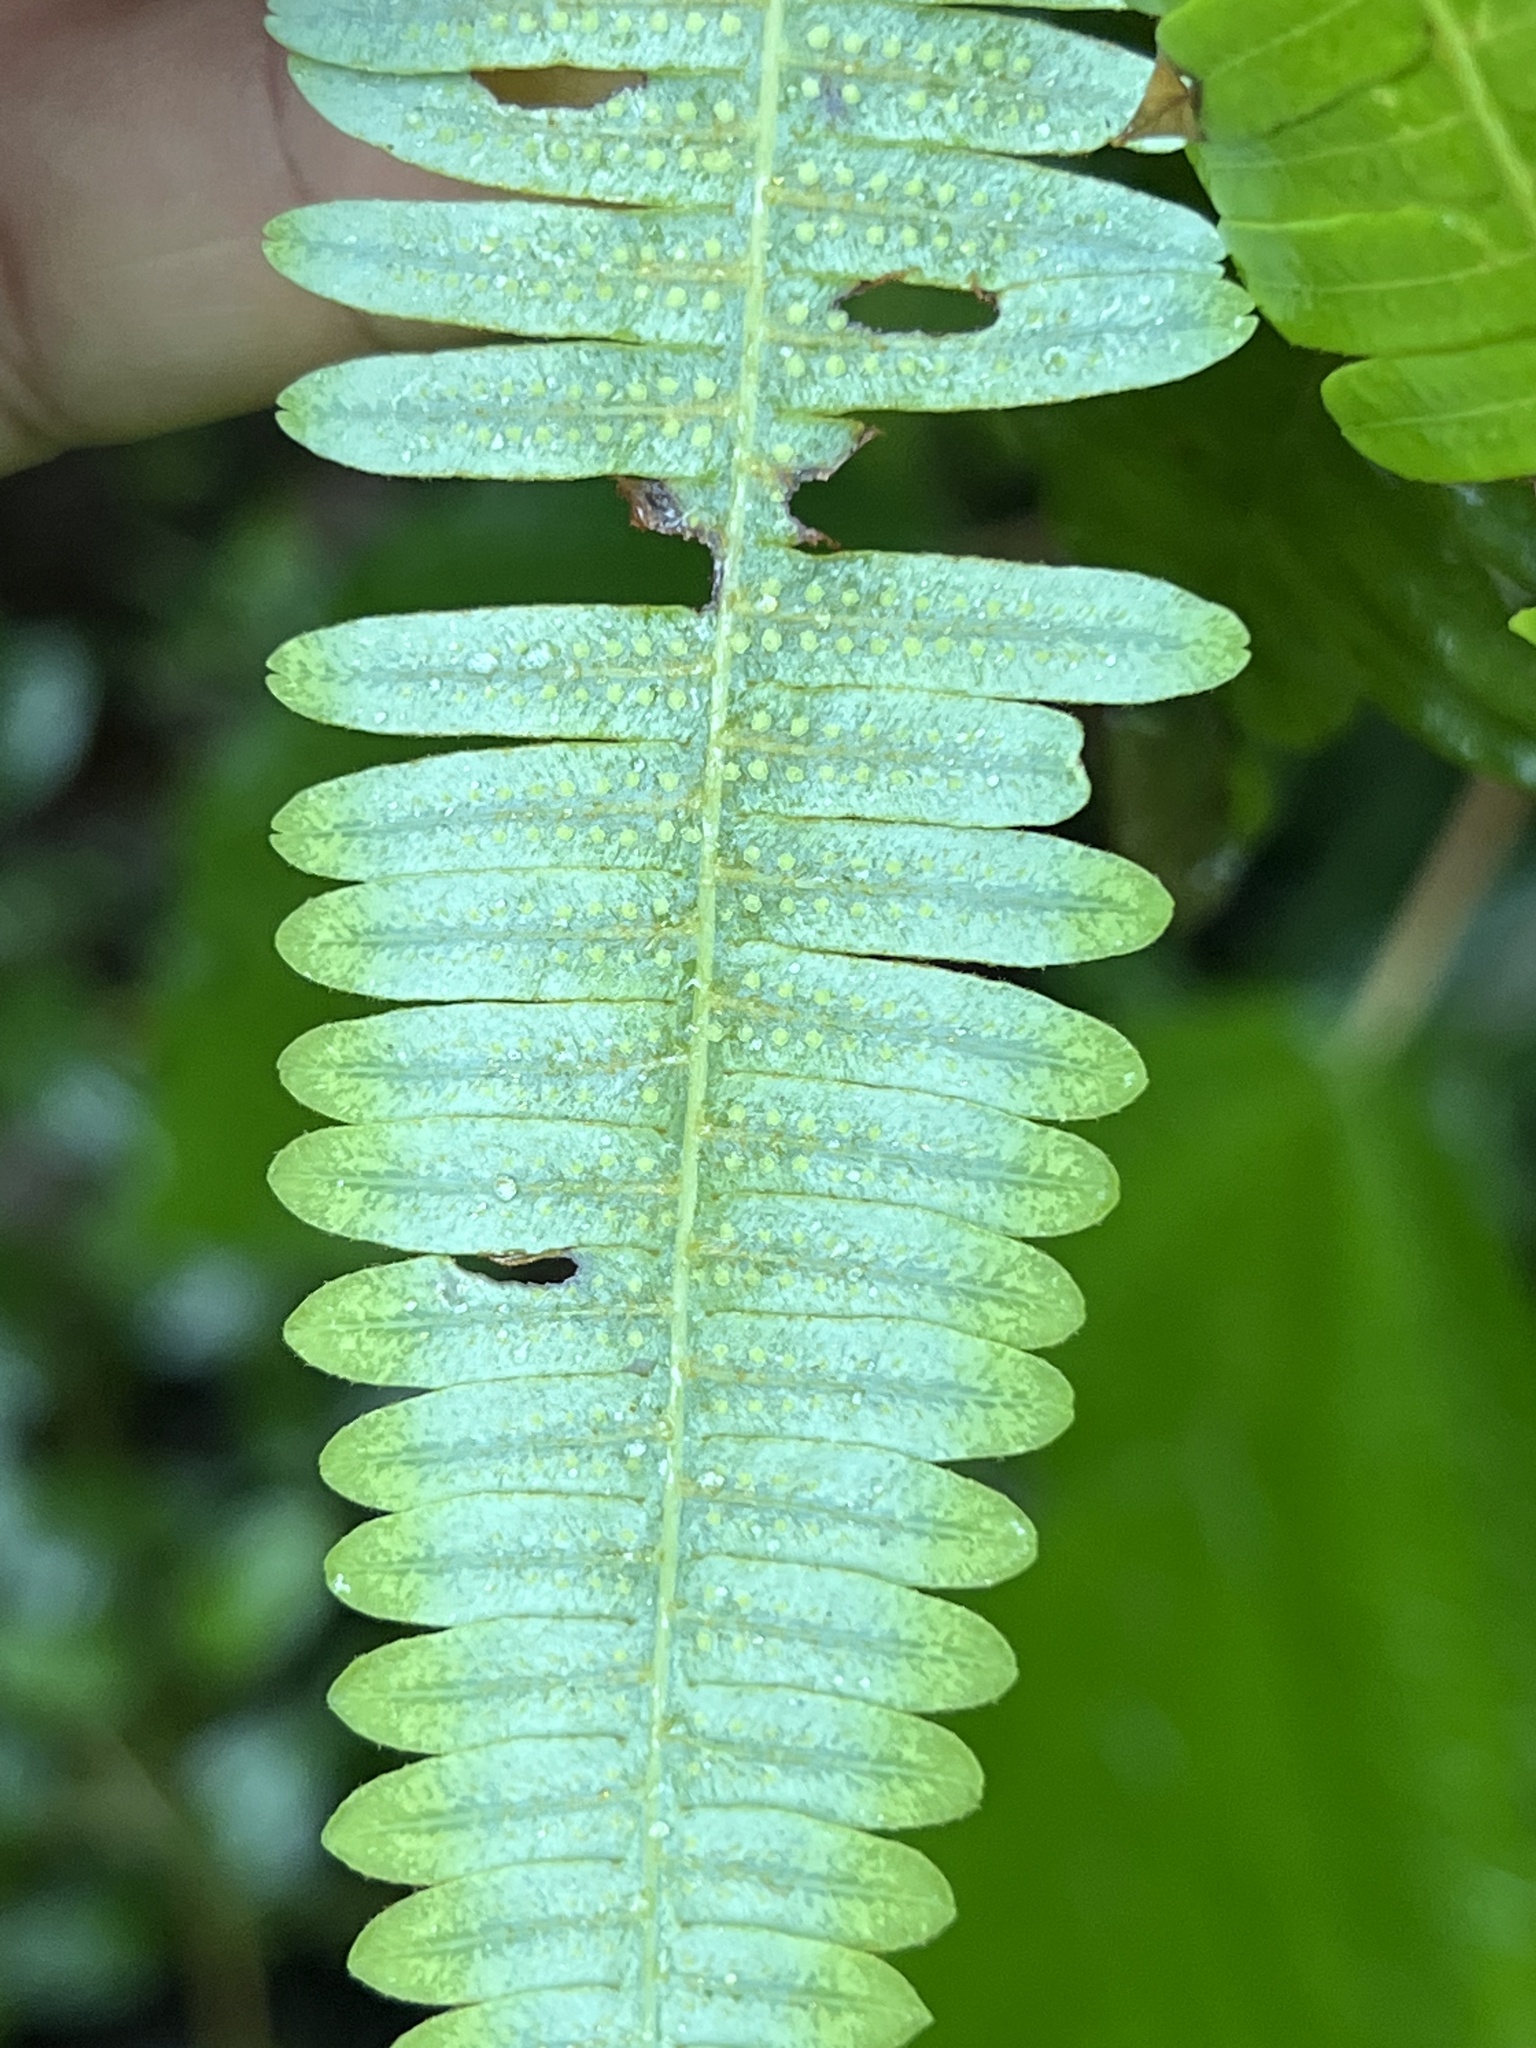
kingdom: Plantae
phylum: Tracheophyta
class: Polypodiopsida
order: Gleicheniales
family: Gleicheniaceae
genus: Gleichenella
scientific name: Gleichenella pectinata
